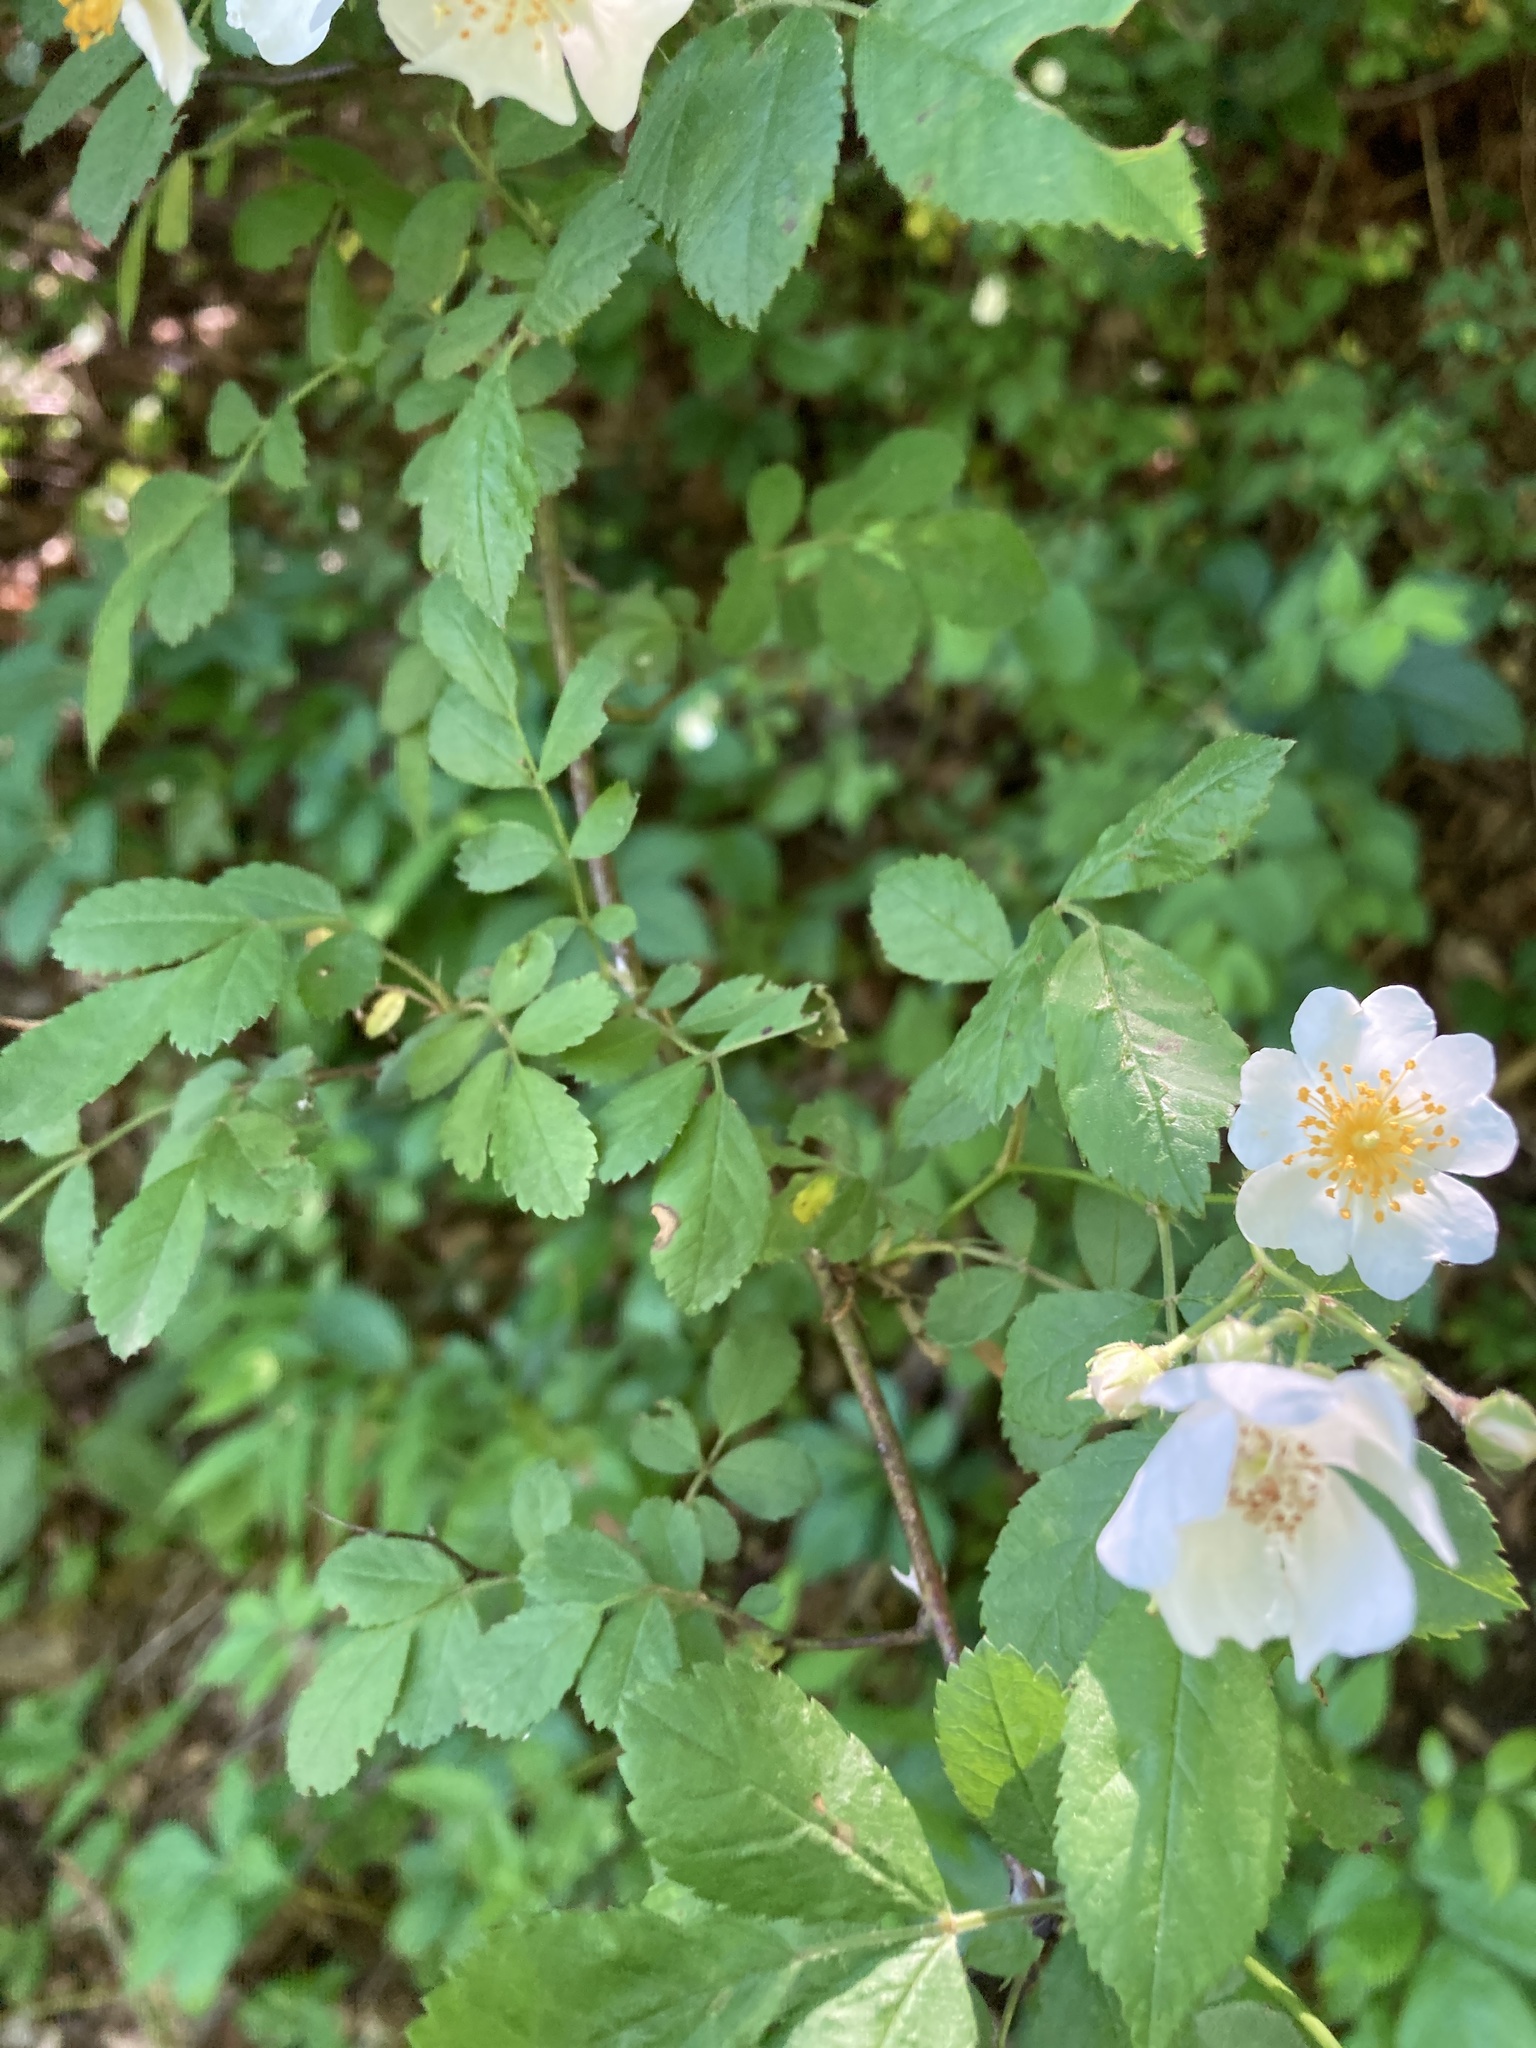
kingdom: Plantae
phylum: Tracheophyta
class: Magnoliopsida
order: Rosales
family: Rosaceae
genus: Rosa
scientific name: Rosa multiflora
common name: Multiflora rose
